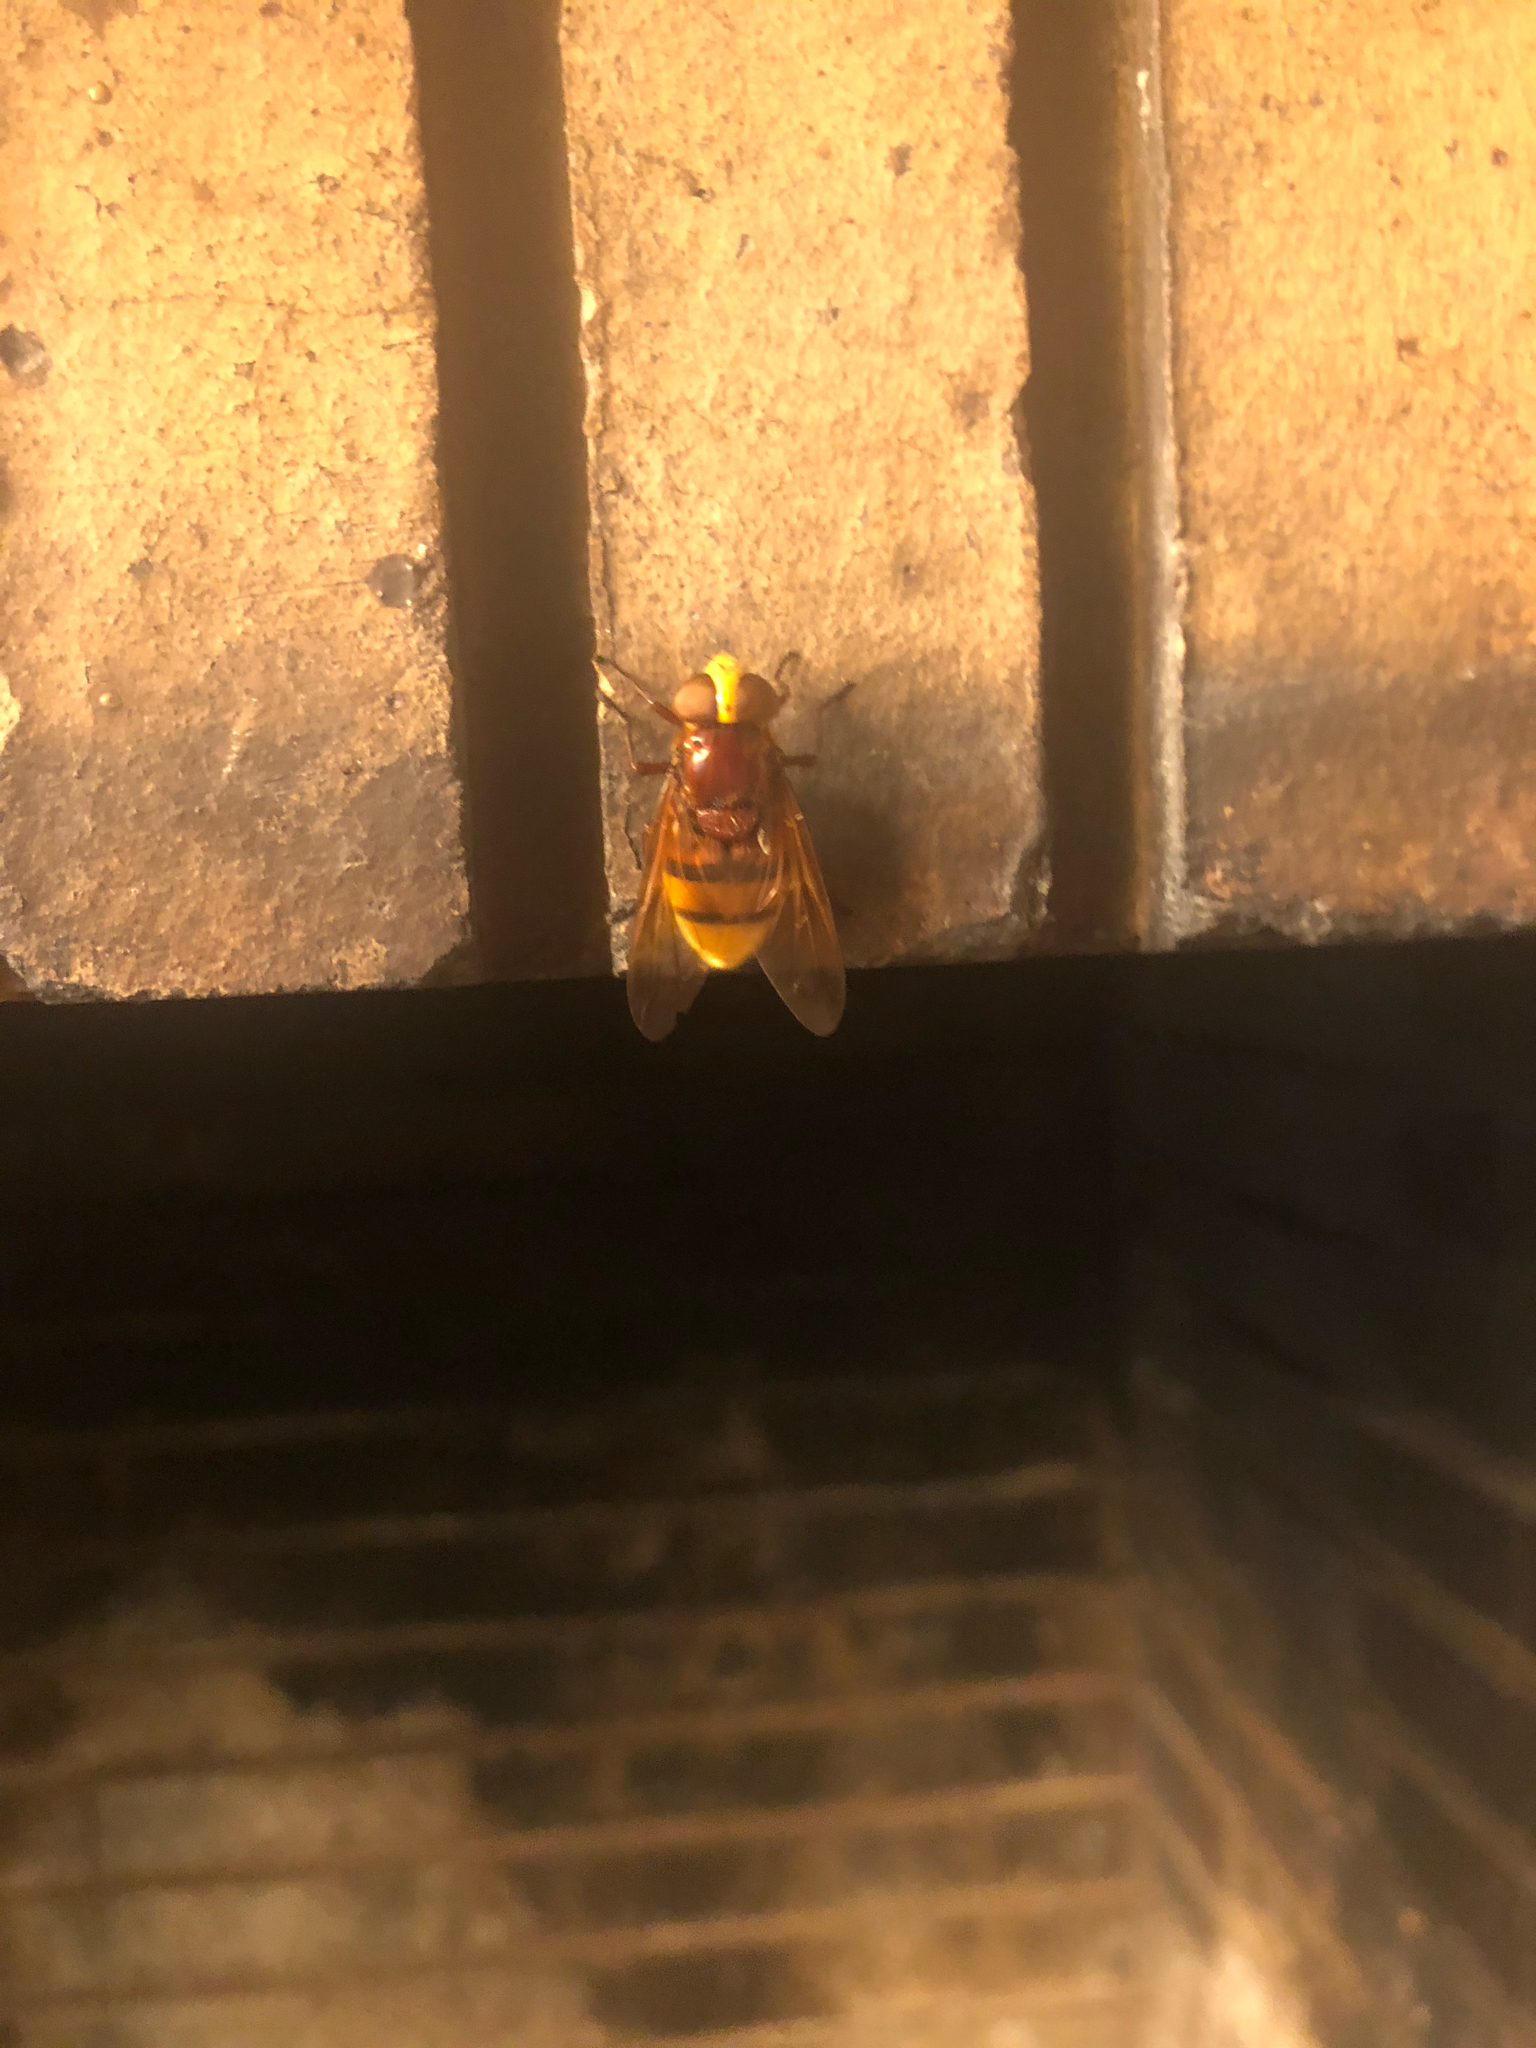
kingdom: Animalia
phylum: Arthropoda
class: Insecta
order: Diptera
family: Syrphidae
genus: Volucella
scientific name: Volucella zonaria
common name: Hornet hoverfly
